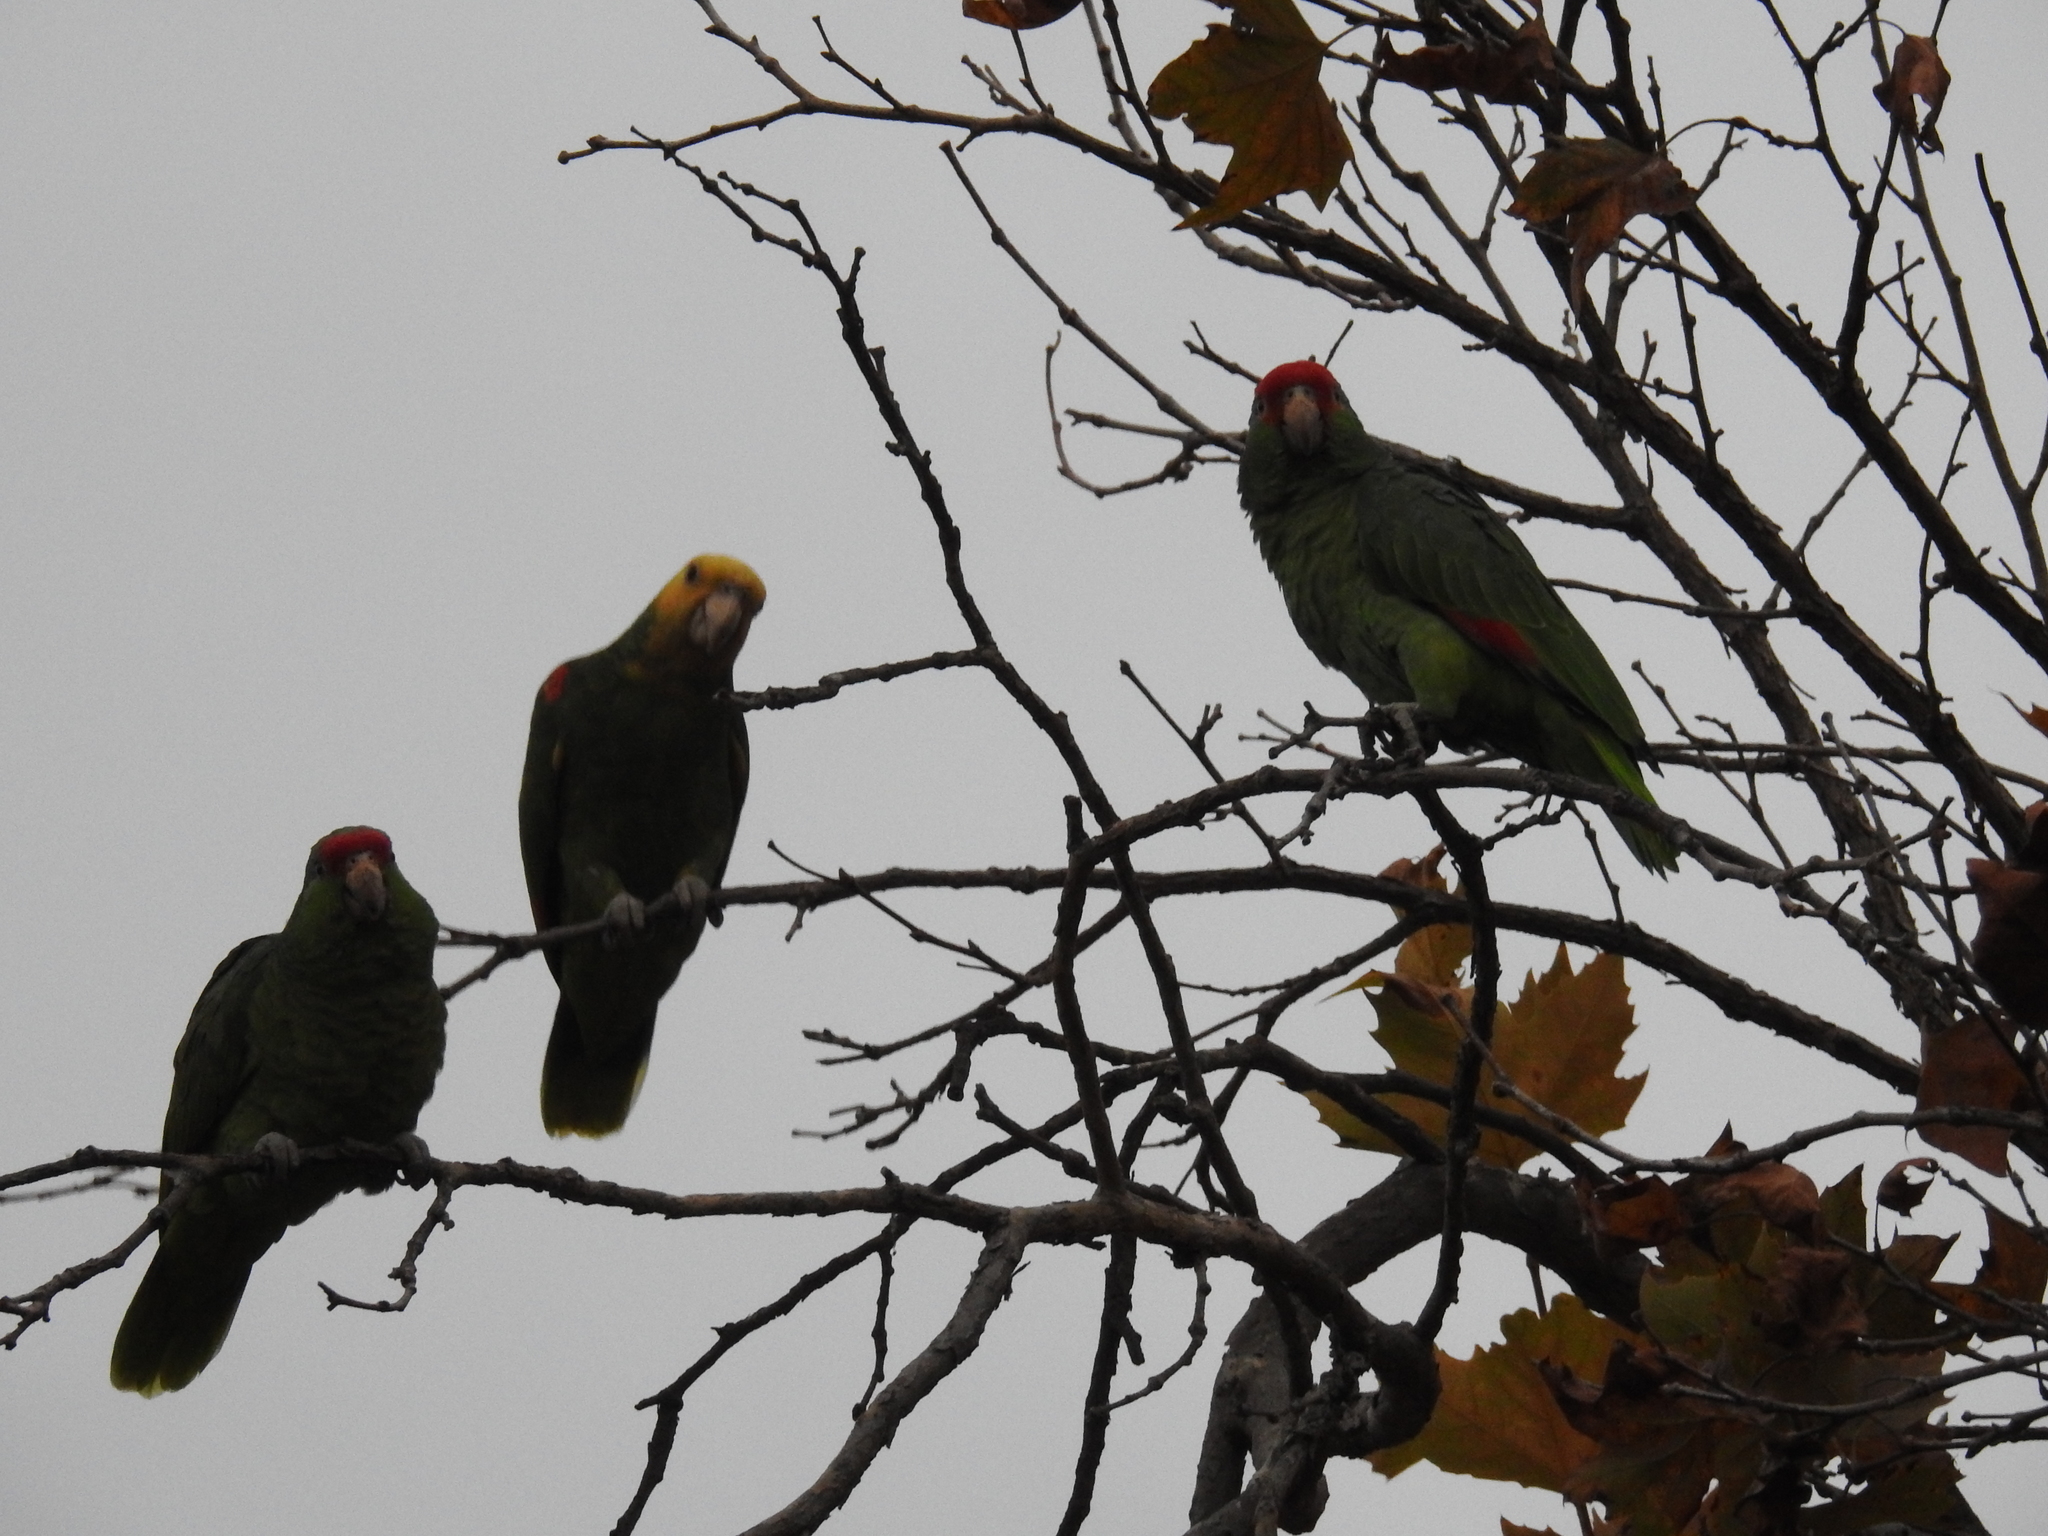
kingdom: Animalia
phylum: Chordata
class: Aves
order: Psittaciformes
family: Psittacidae
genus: Amazona
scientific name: Amazona oratrix
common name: Yellow-headed amazon
